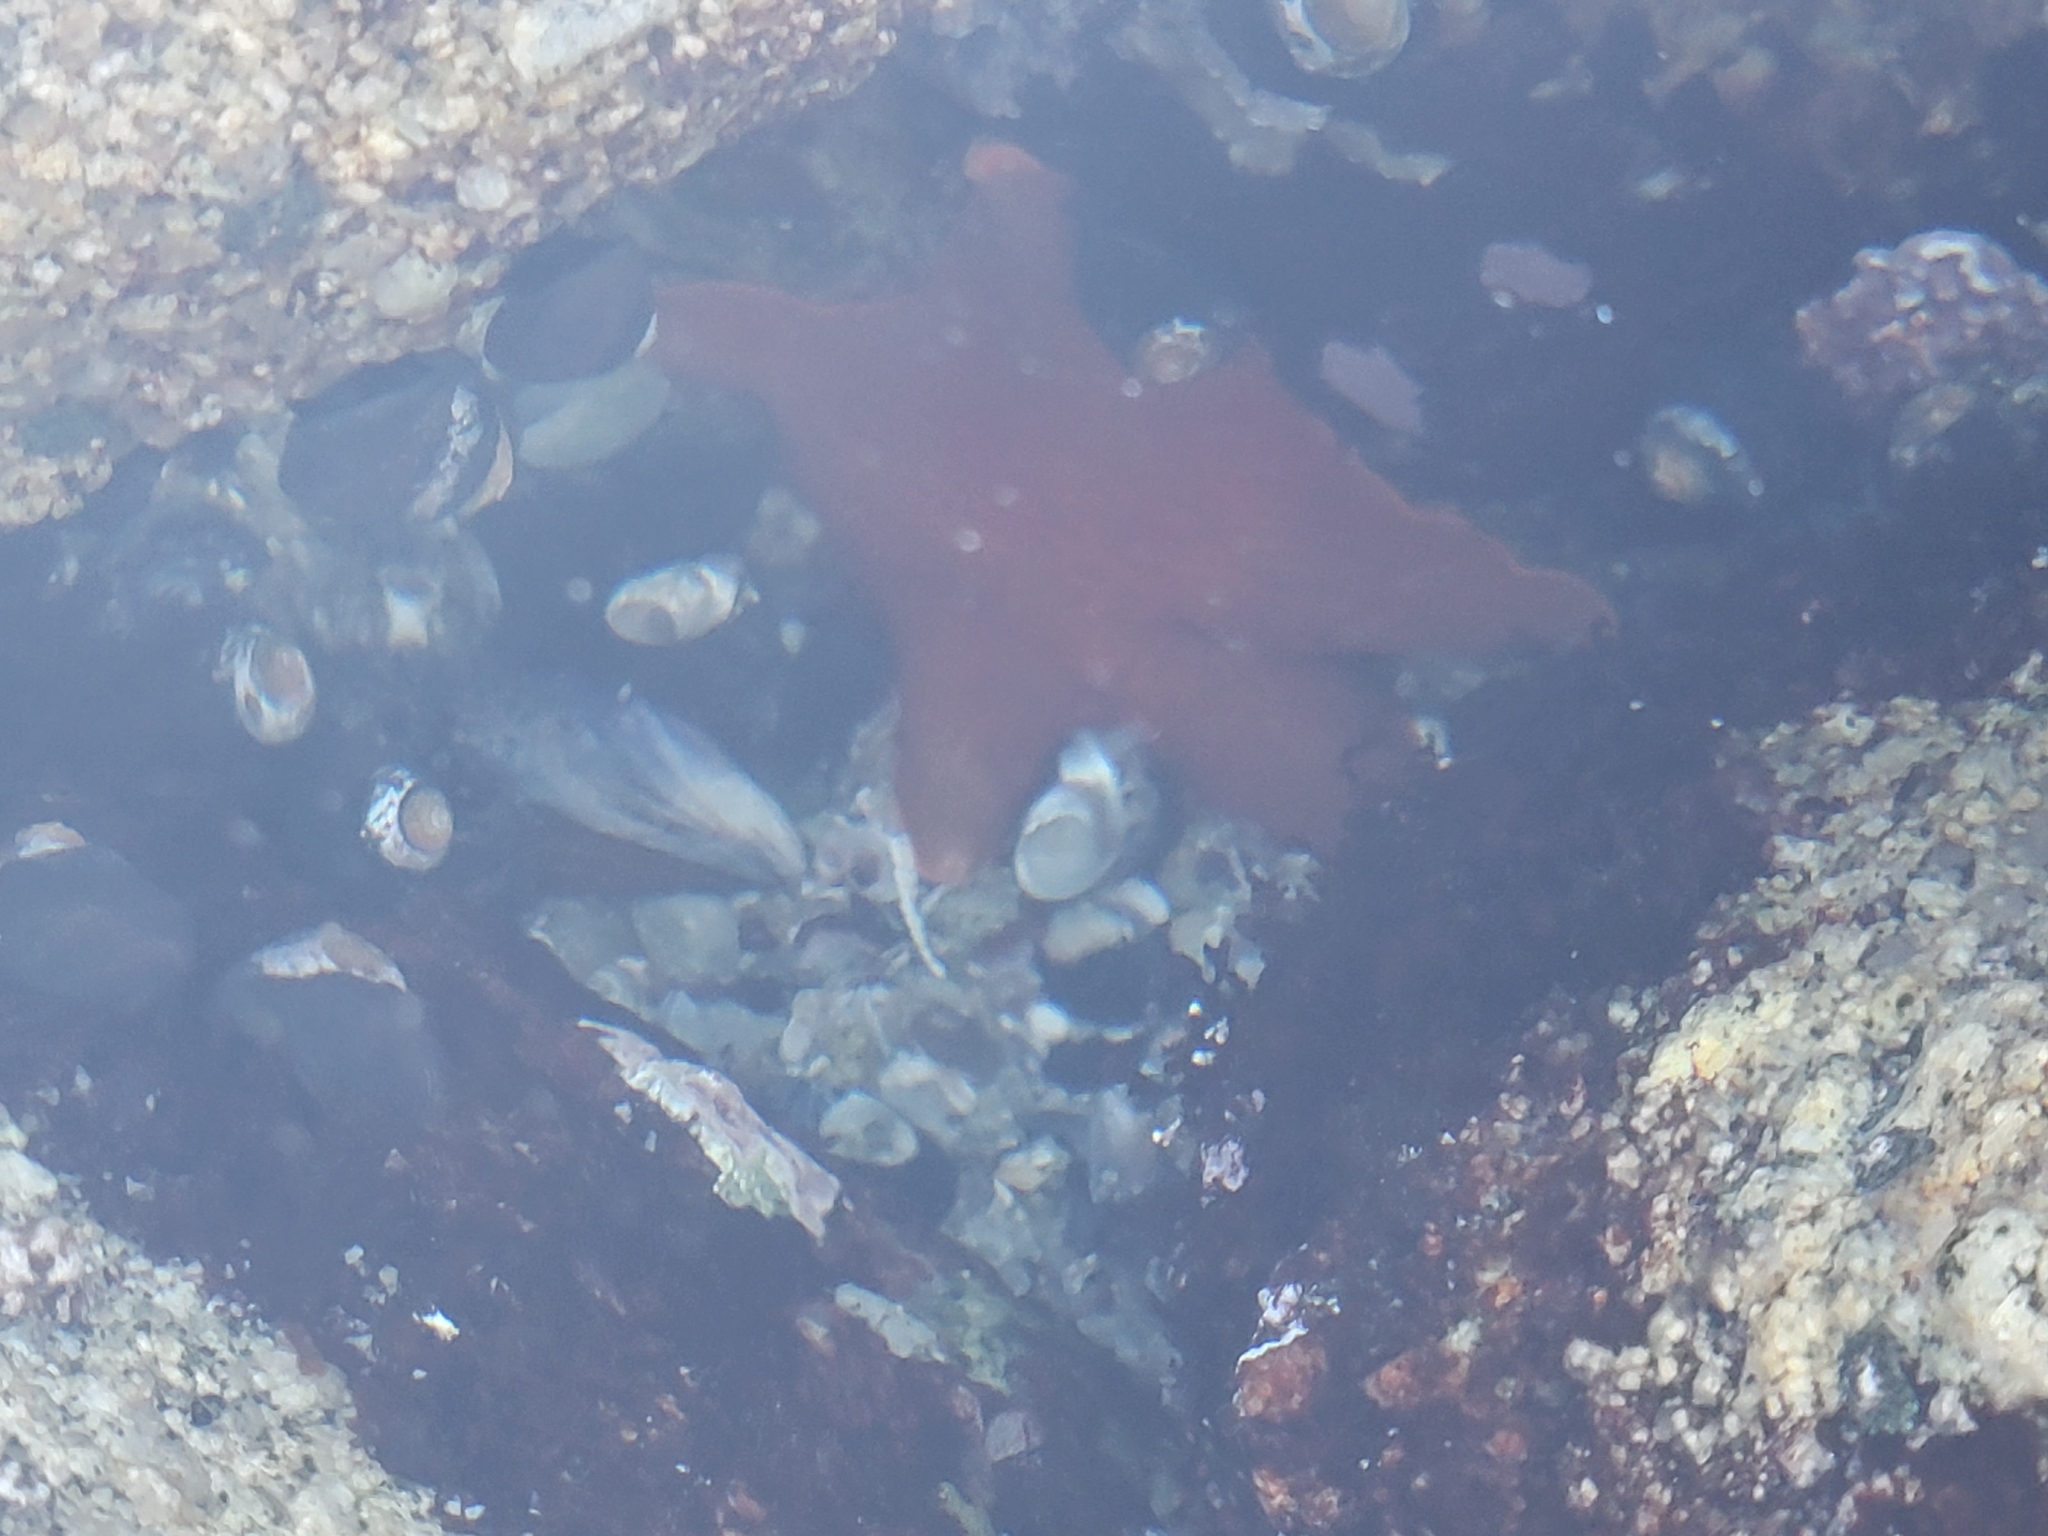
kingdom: Animalia
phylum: Echinodermata
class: Asteroidea
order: Valvatida
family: Asterinidae
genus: Patiria
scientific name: Patiria miniata
